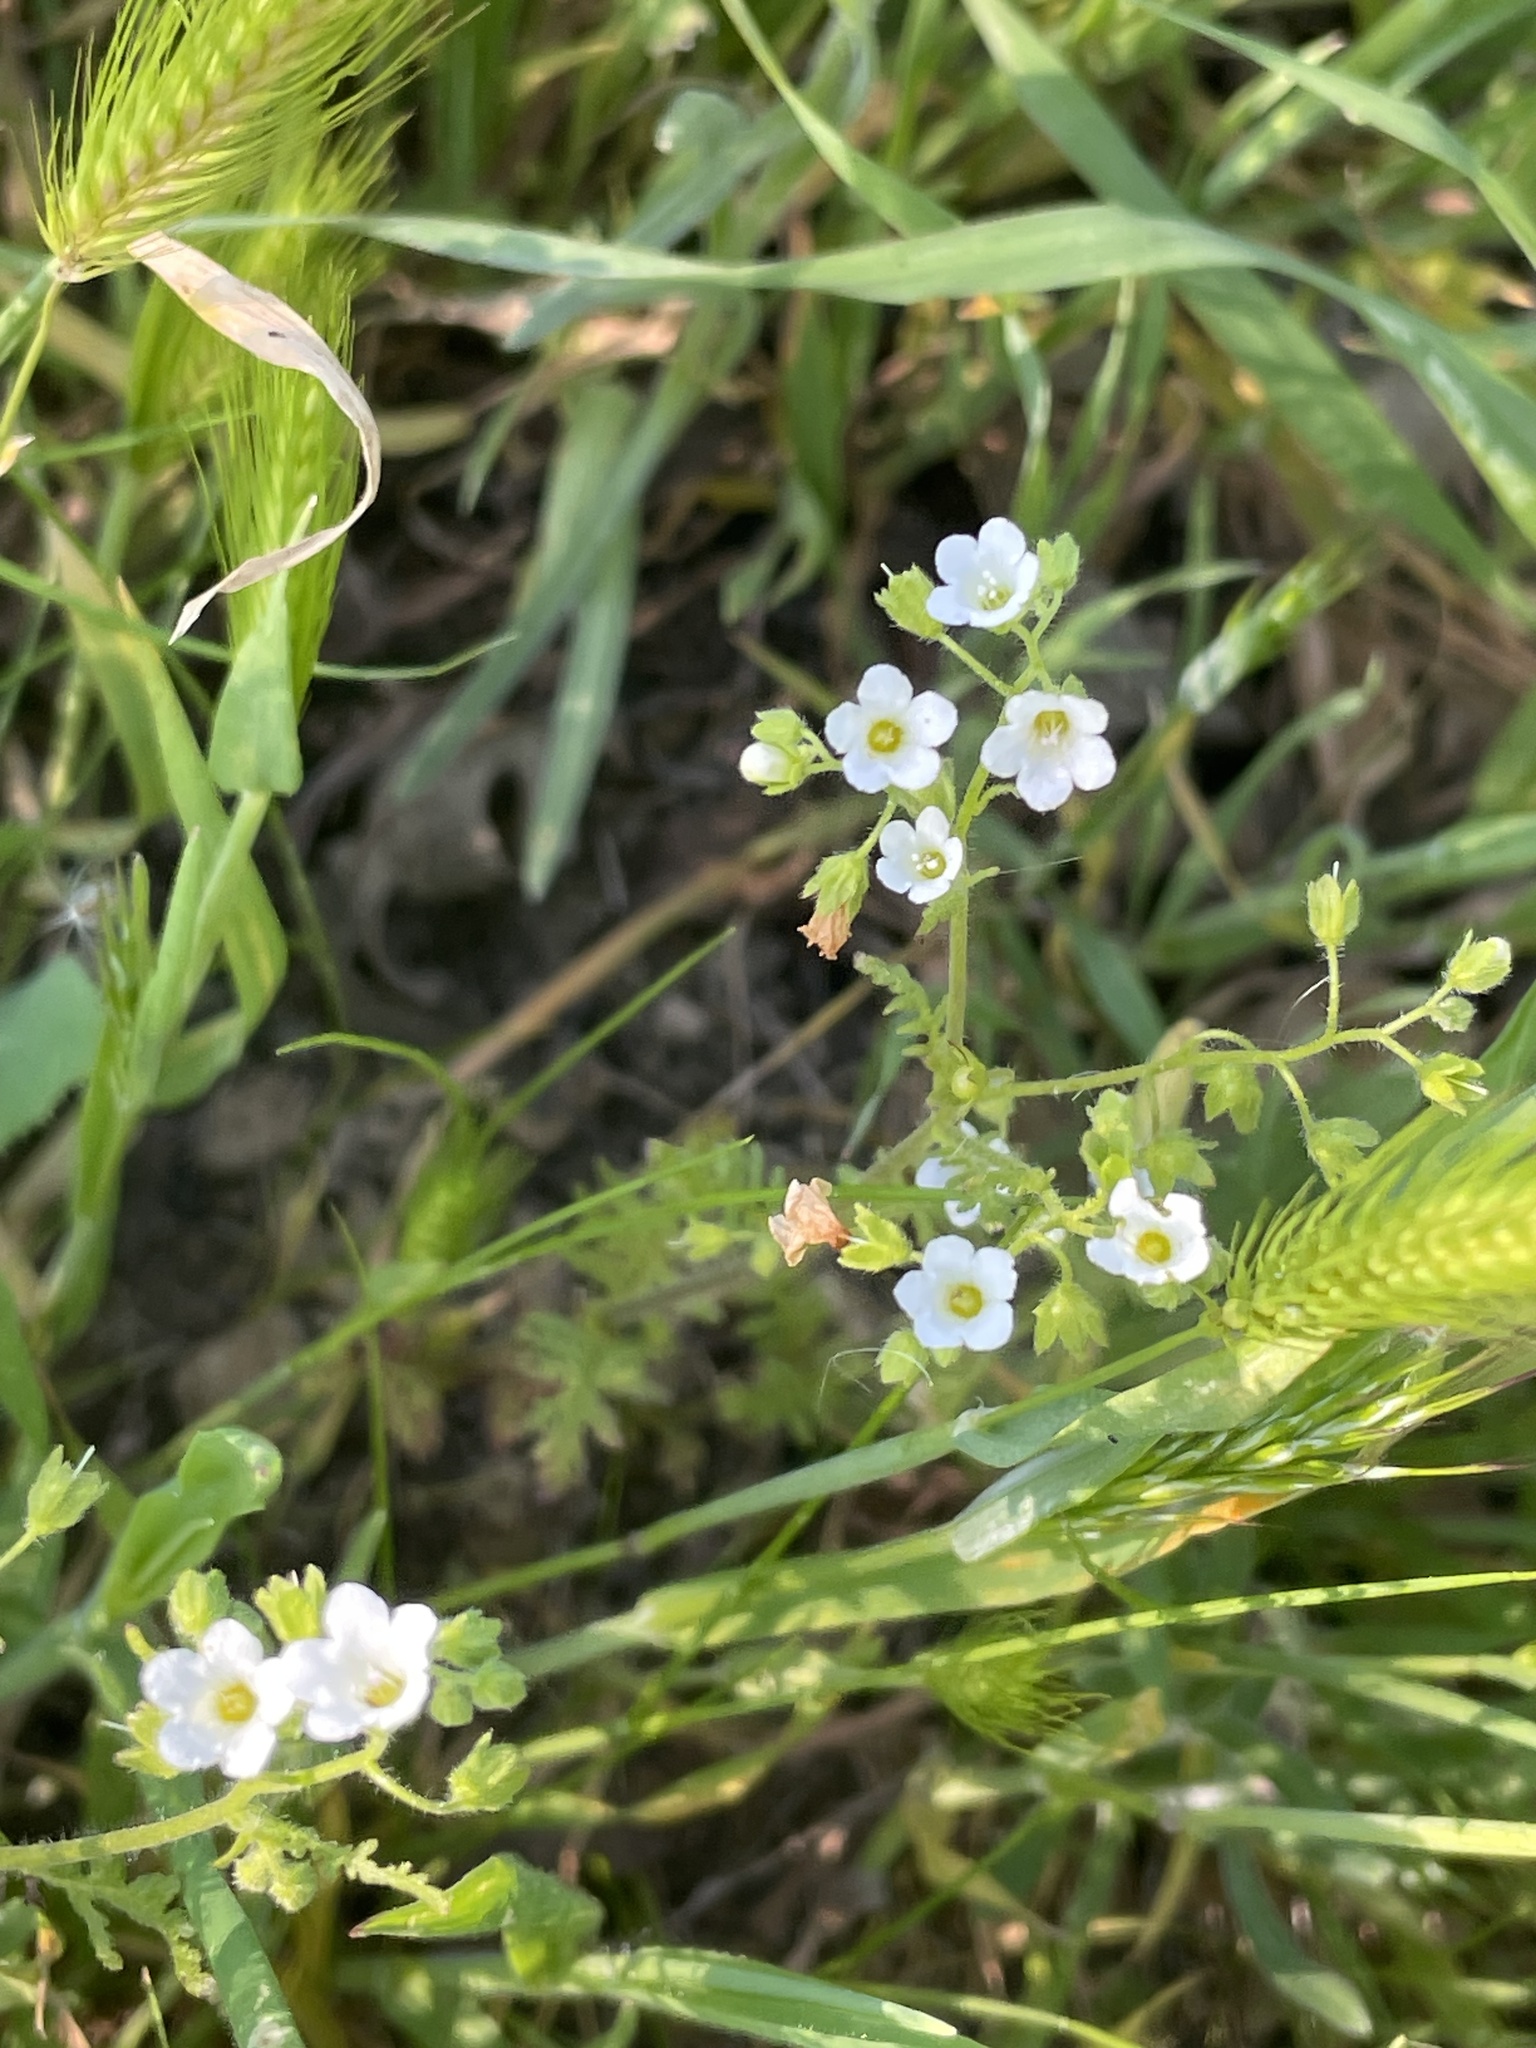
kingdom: Plantae
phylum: Tracheophyta
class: Magnoliopsida
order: Boraginales
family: Hydrophyllaceae
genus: Eucrypta
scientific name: Eucrypta chrysanthemifolia
